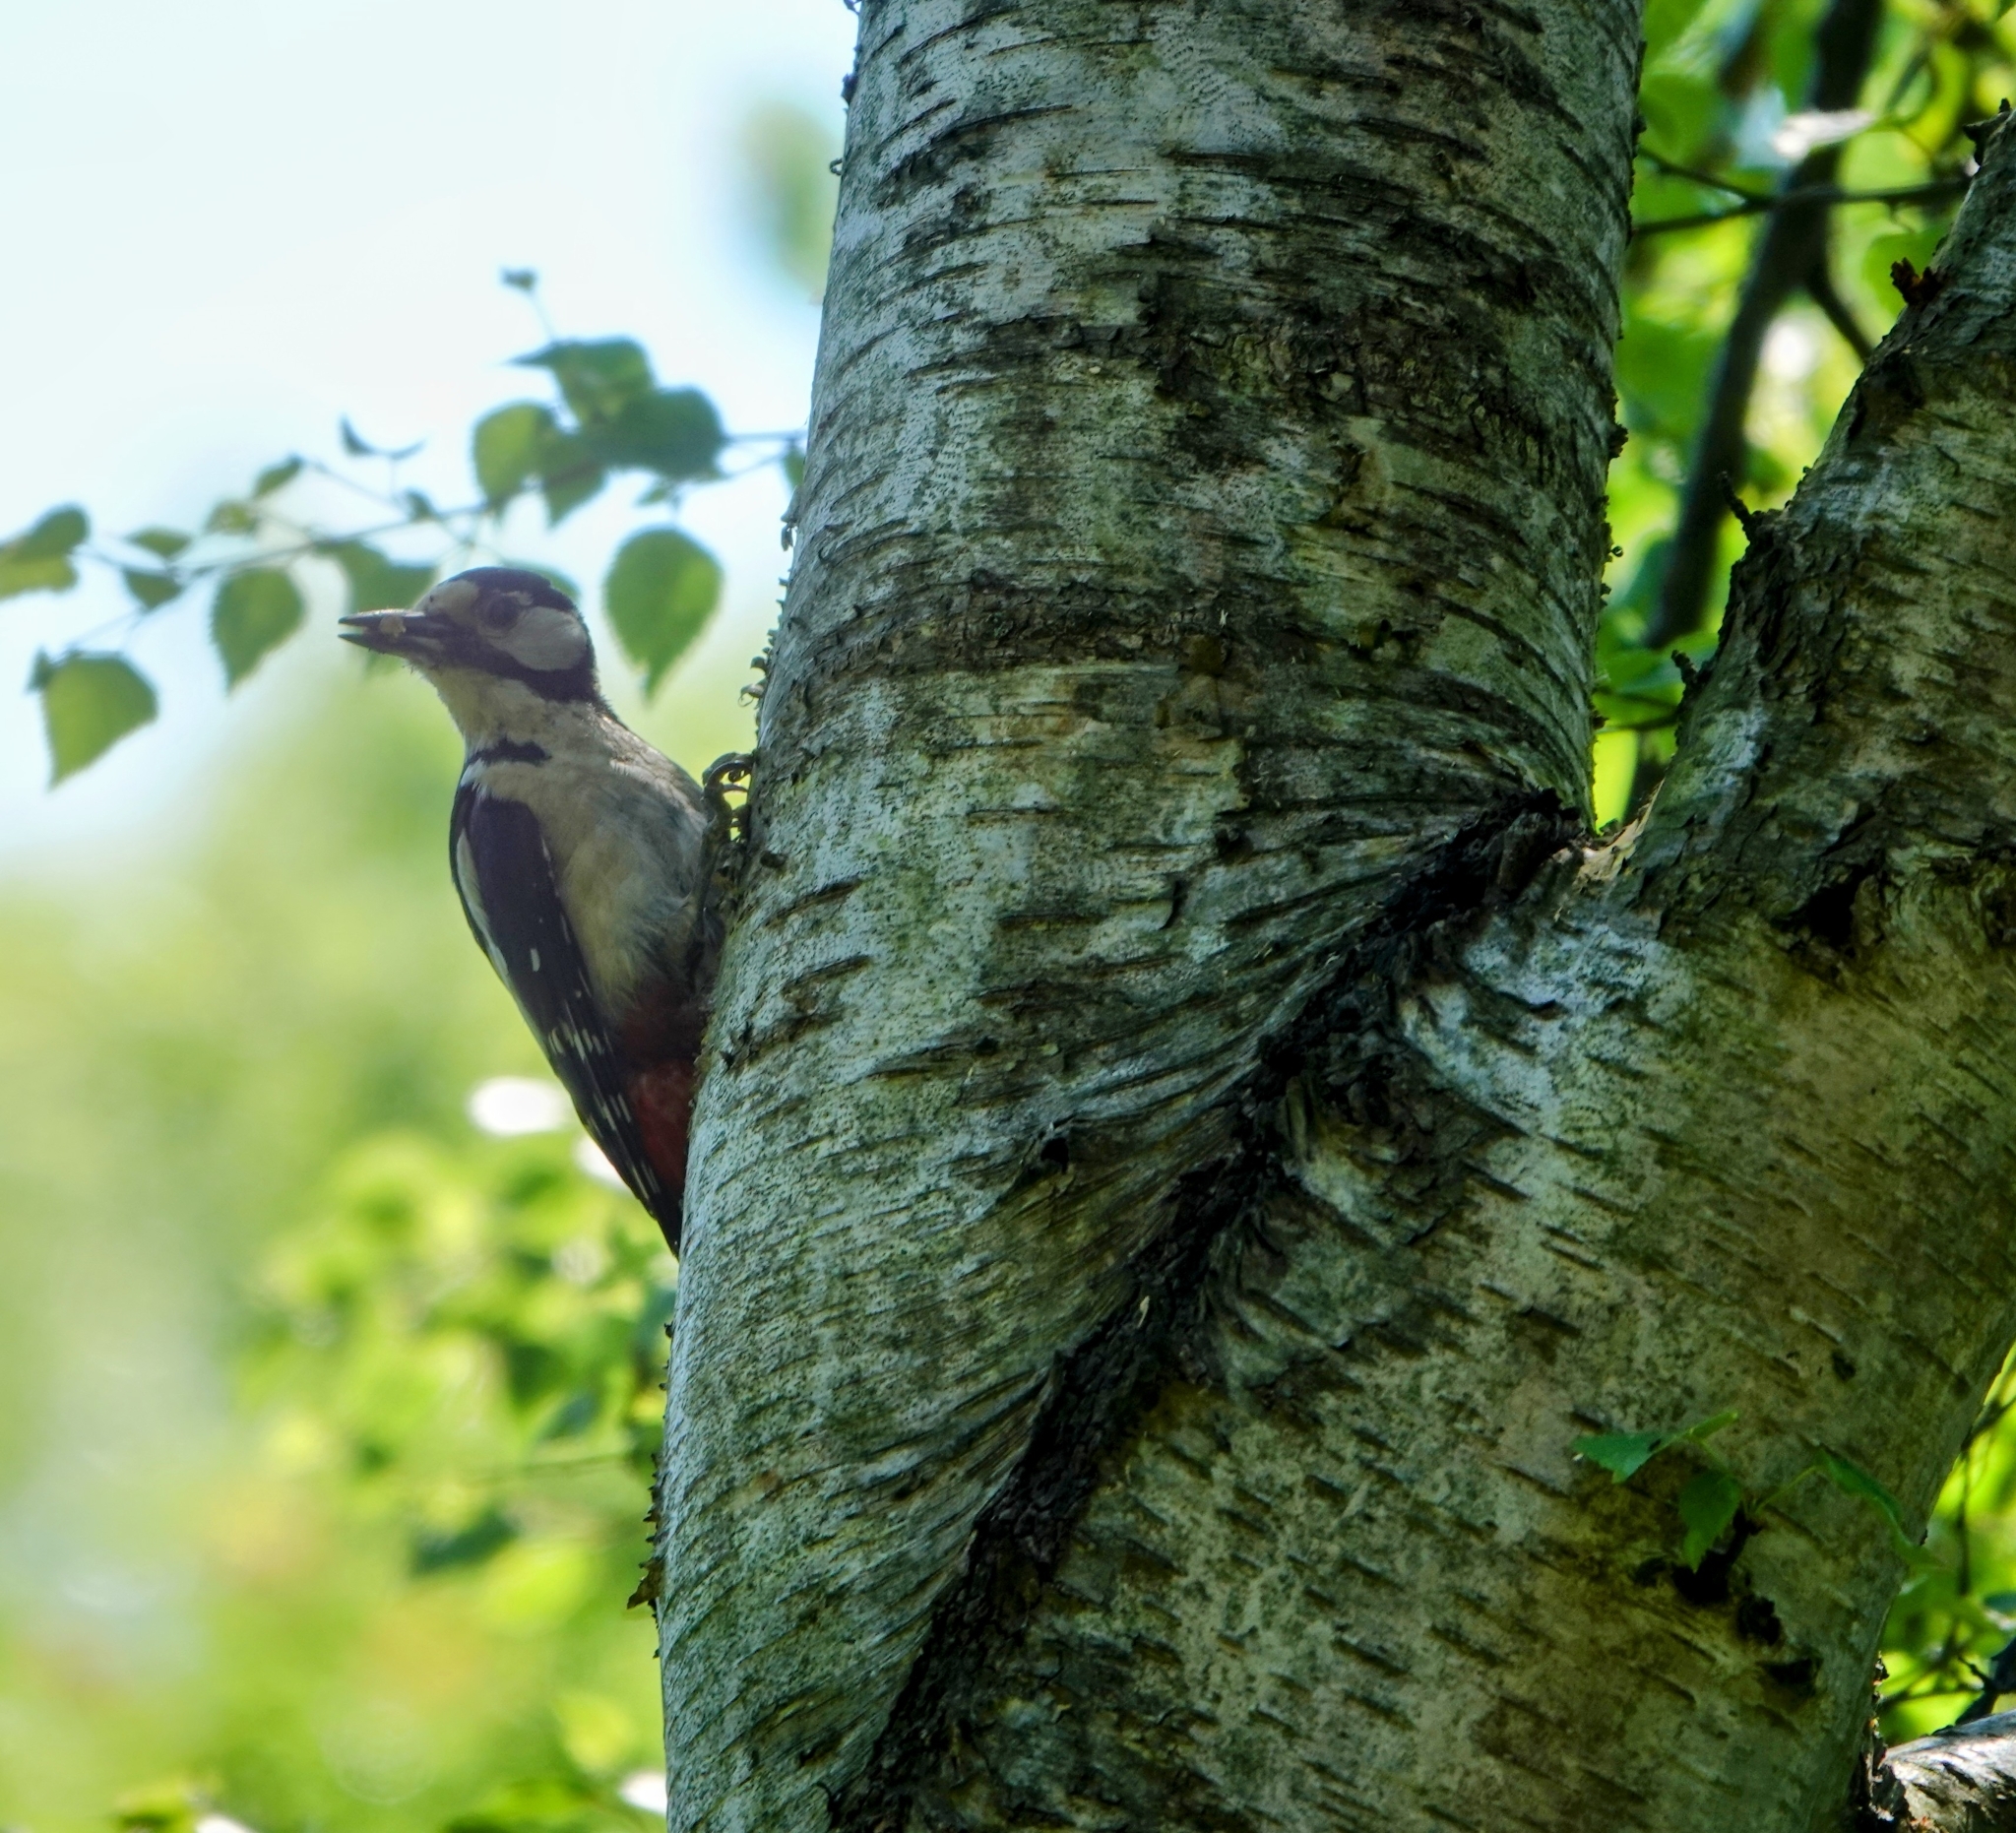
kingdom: Animalia
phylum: Chordata
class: Aves
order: Piciformes
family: Picidae
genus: Dendrocopos
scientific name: Dendrocopos major
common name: Great spotted woodpecker
